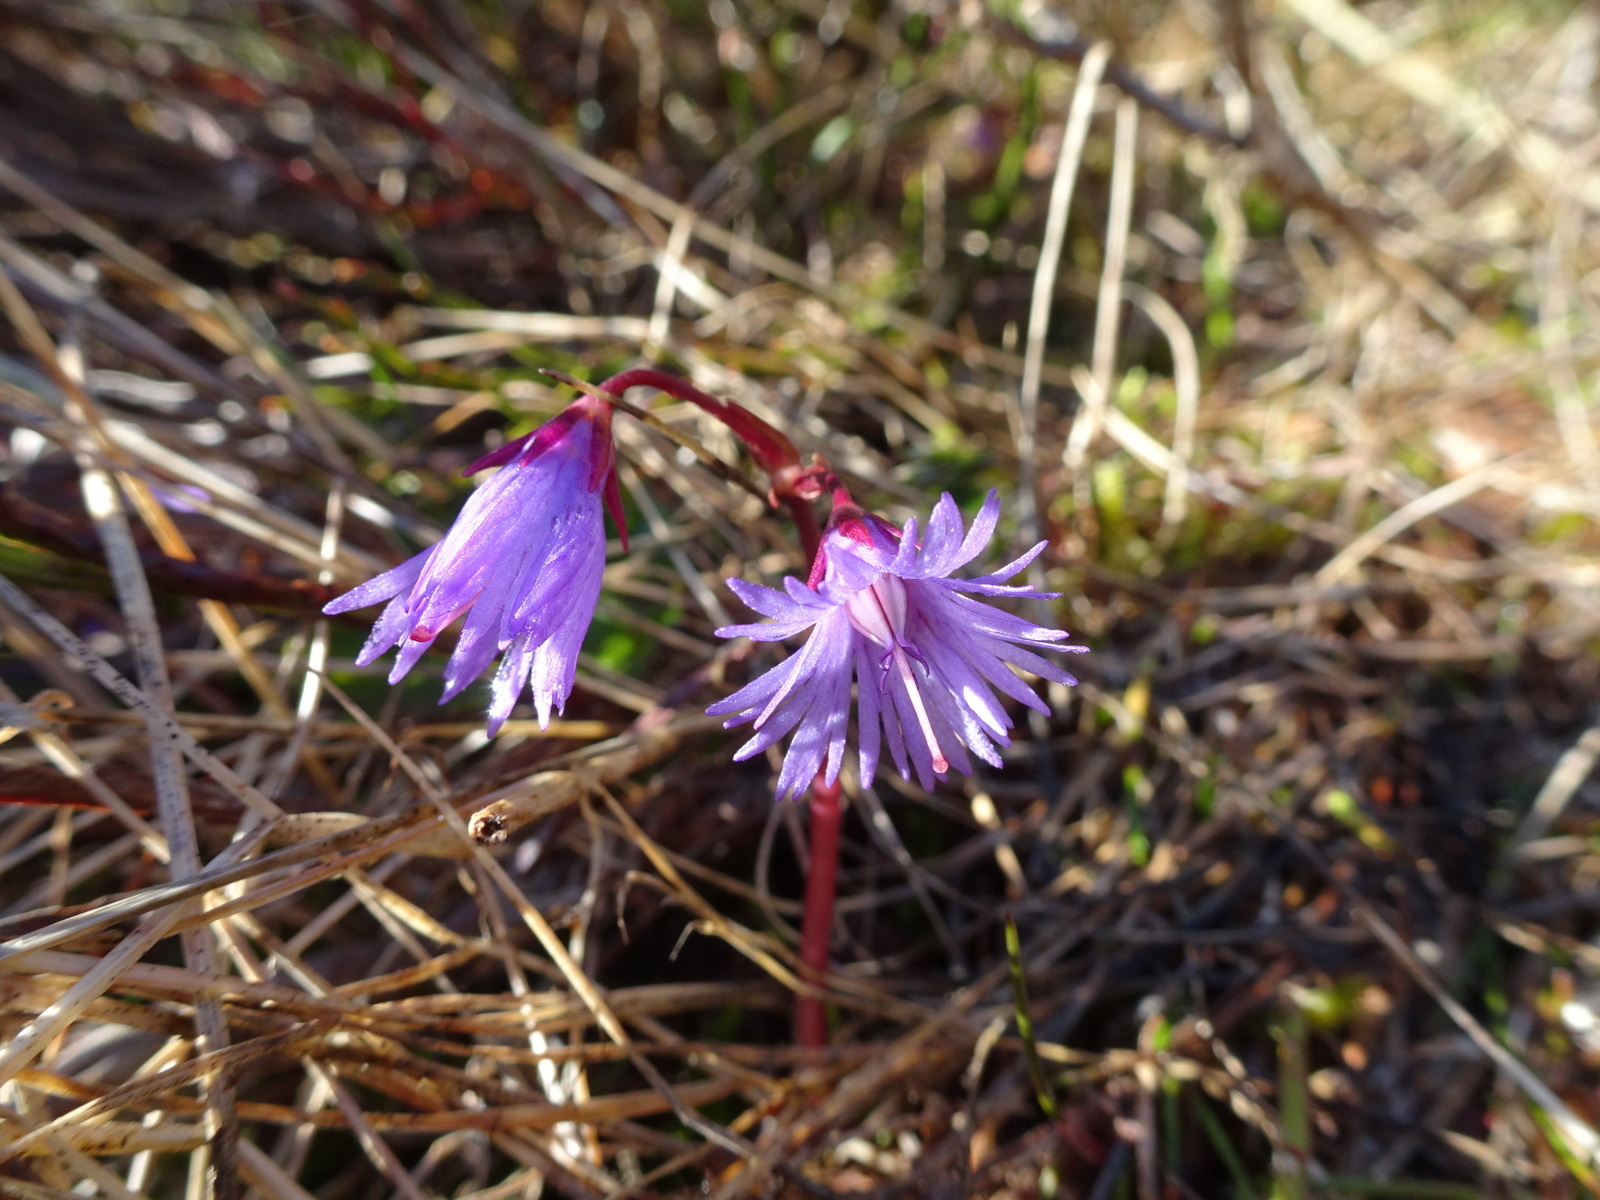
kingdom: Plantae
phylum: Tracheophyta
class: Magnoliopsida
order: Ericales
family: Primulaceae
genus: Soldanella
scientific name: Soldanella alpina
